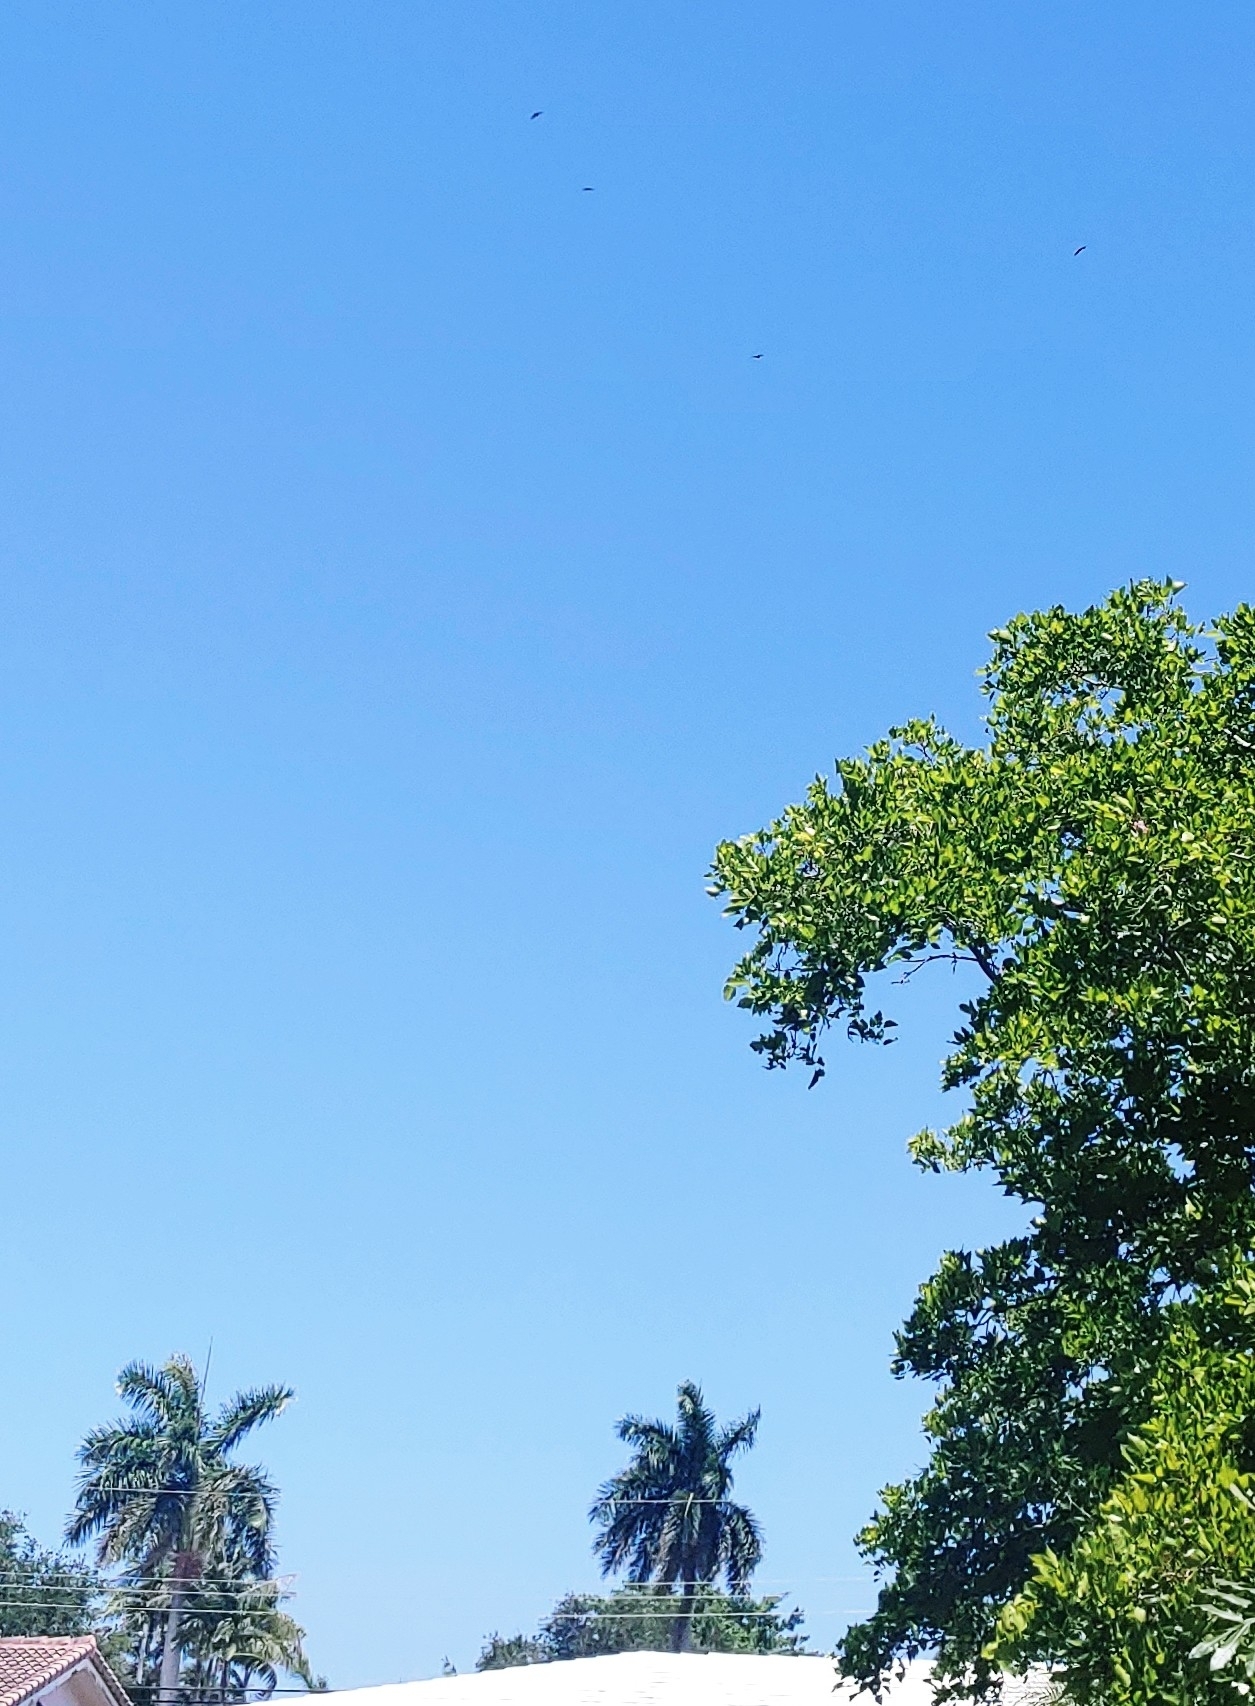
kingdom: Animalia
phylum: Chordata
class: Aves
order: Suliformes
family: Fregatidae
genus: Fregata
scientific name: Fregata magnificens
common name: Magnificent frigatebird
